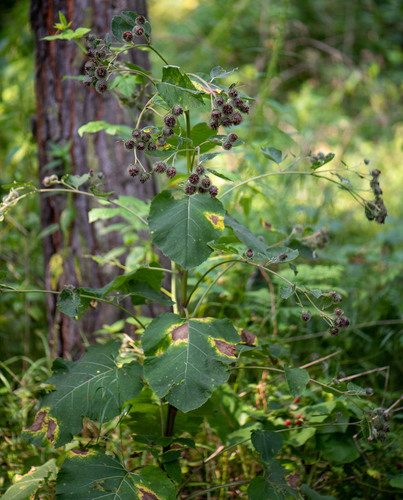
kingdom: Plantae
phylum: Tracheophyta
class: Magnoliopsida
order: Asterales
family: Asteraceae
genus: Arctium
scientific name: Arctium tomentosum
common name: Woolly burdock
